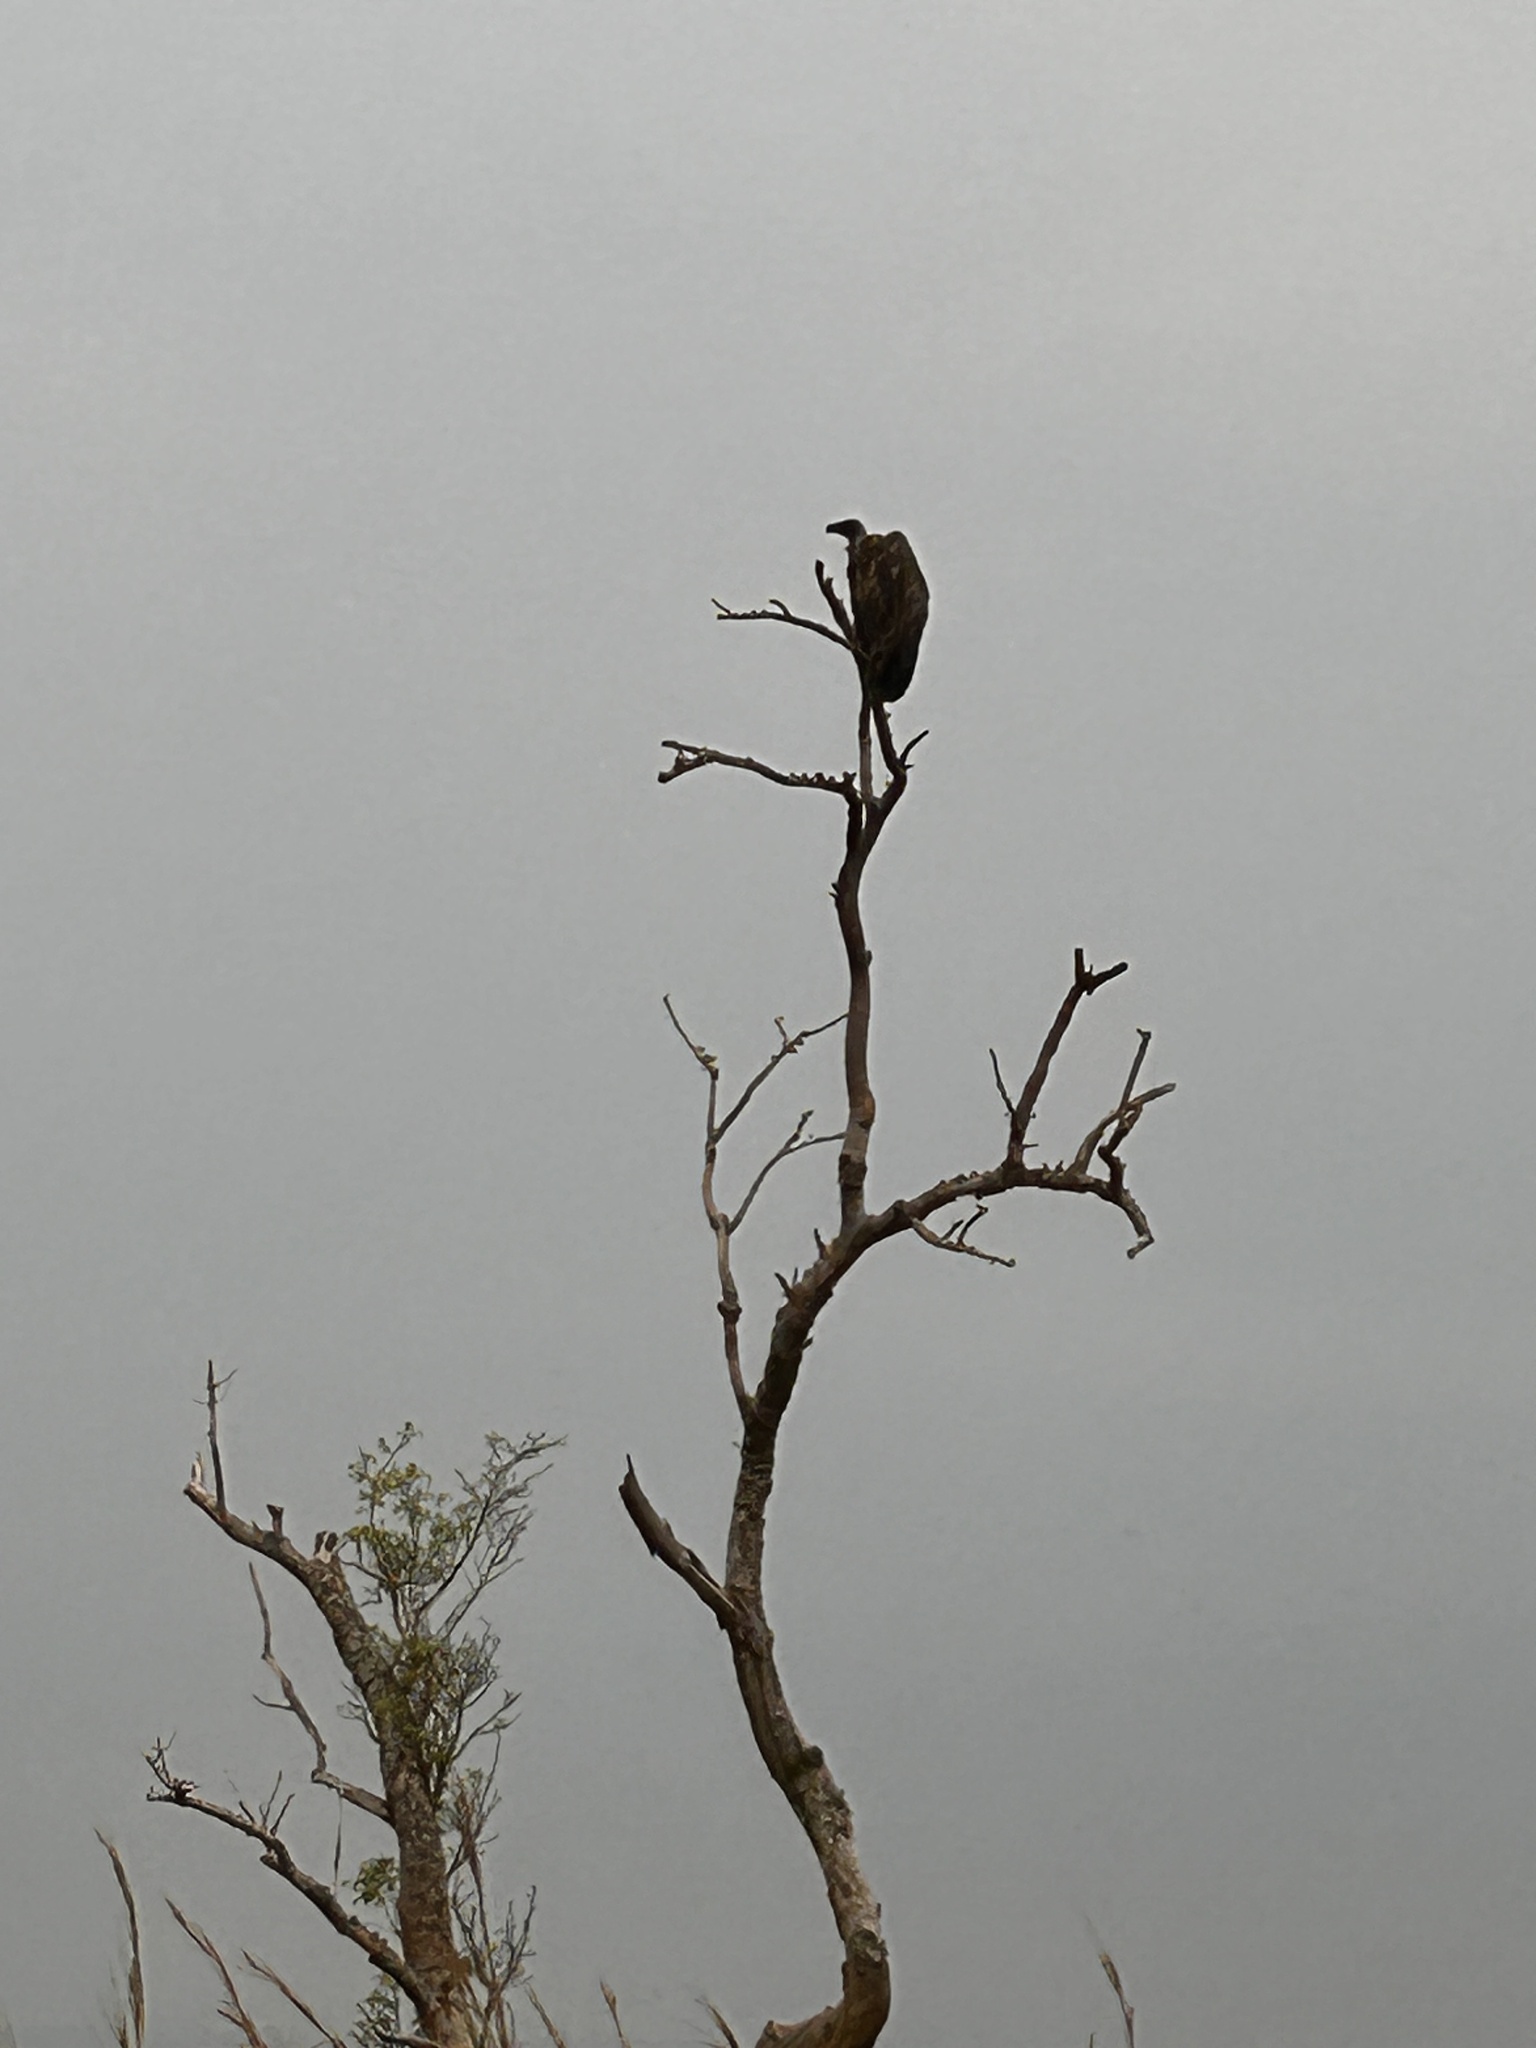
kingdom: Animalia
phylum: Chordata
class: Aves
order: Accipitriformes
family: Accipitridae
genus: Gyps
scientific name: Gyps africanus
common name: White-backed vulture
